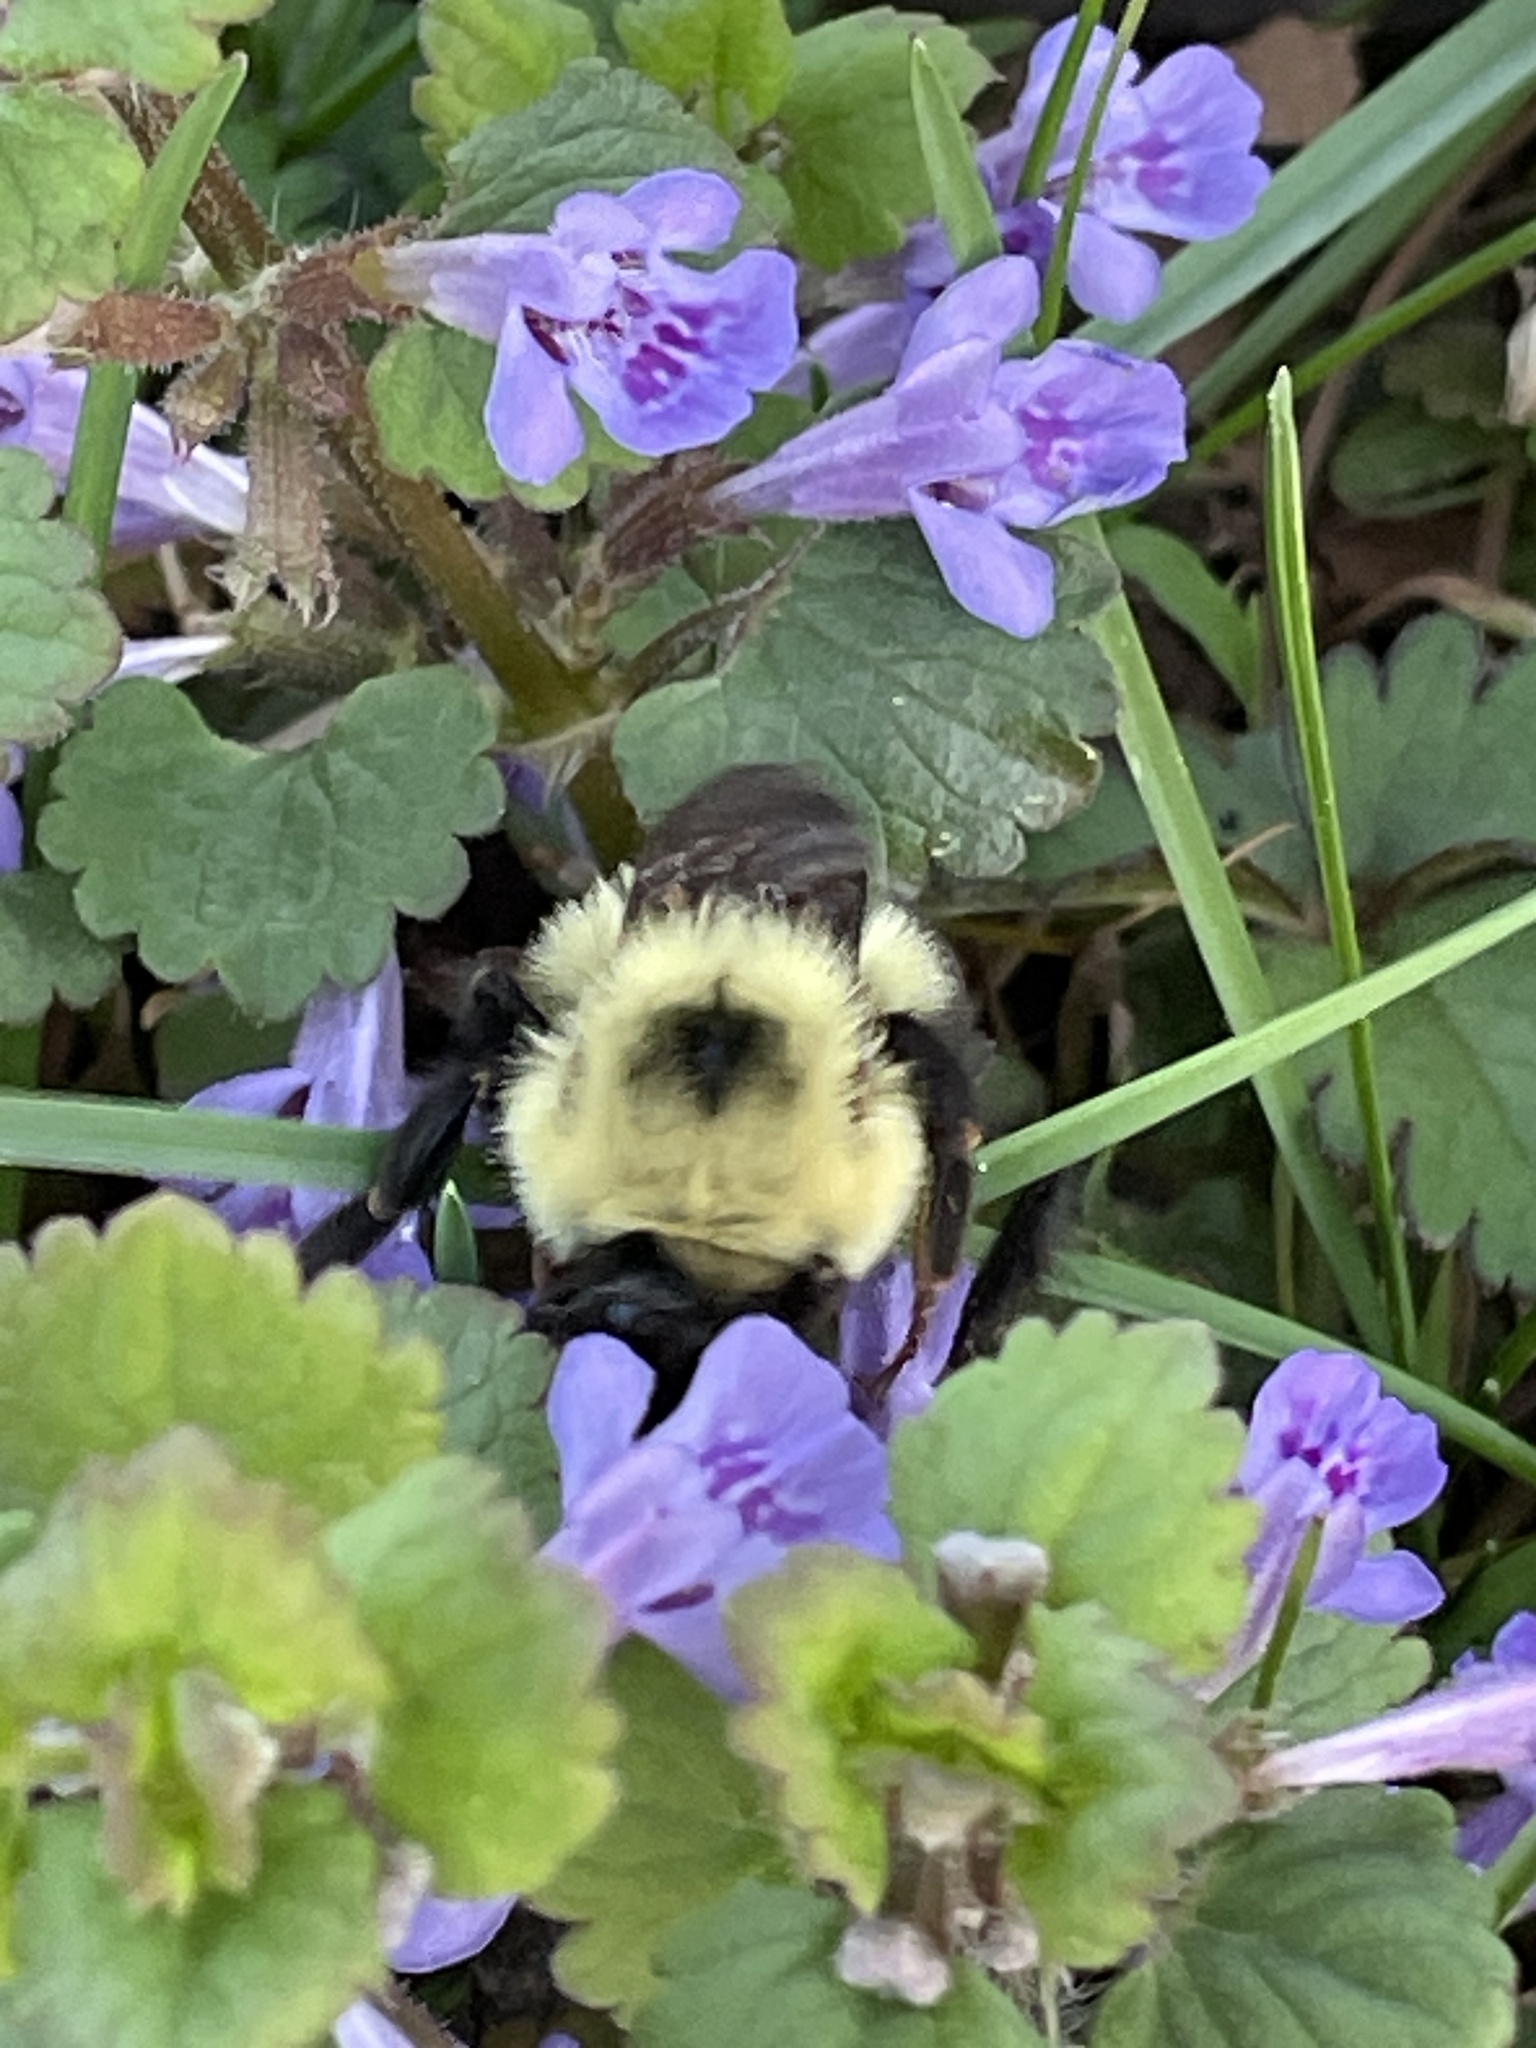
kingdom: Animalia
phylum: Arthropoda
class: Insecta
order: Hymenoptera
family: Apidae
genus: Bombus
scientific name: Bombus bimaculatus
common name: Two-spotted bumble bee
